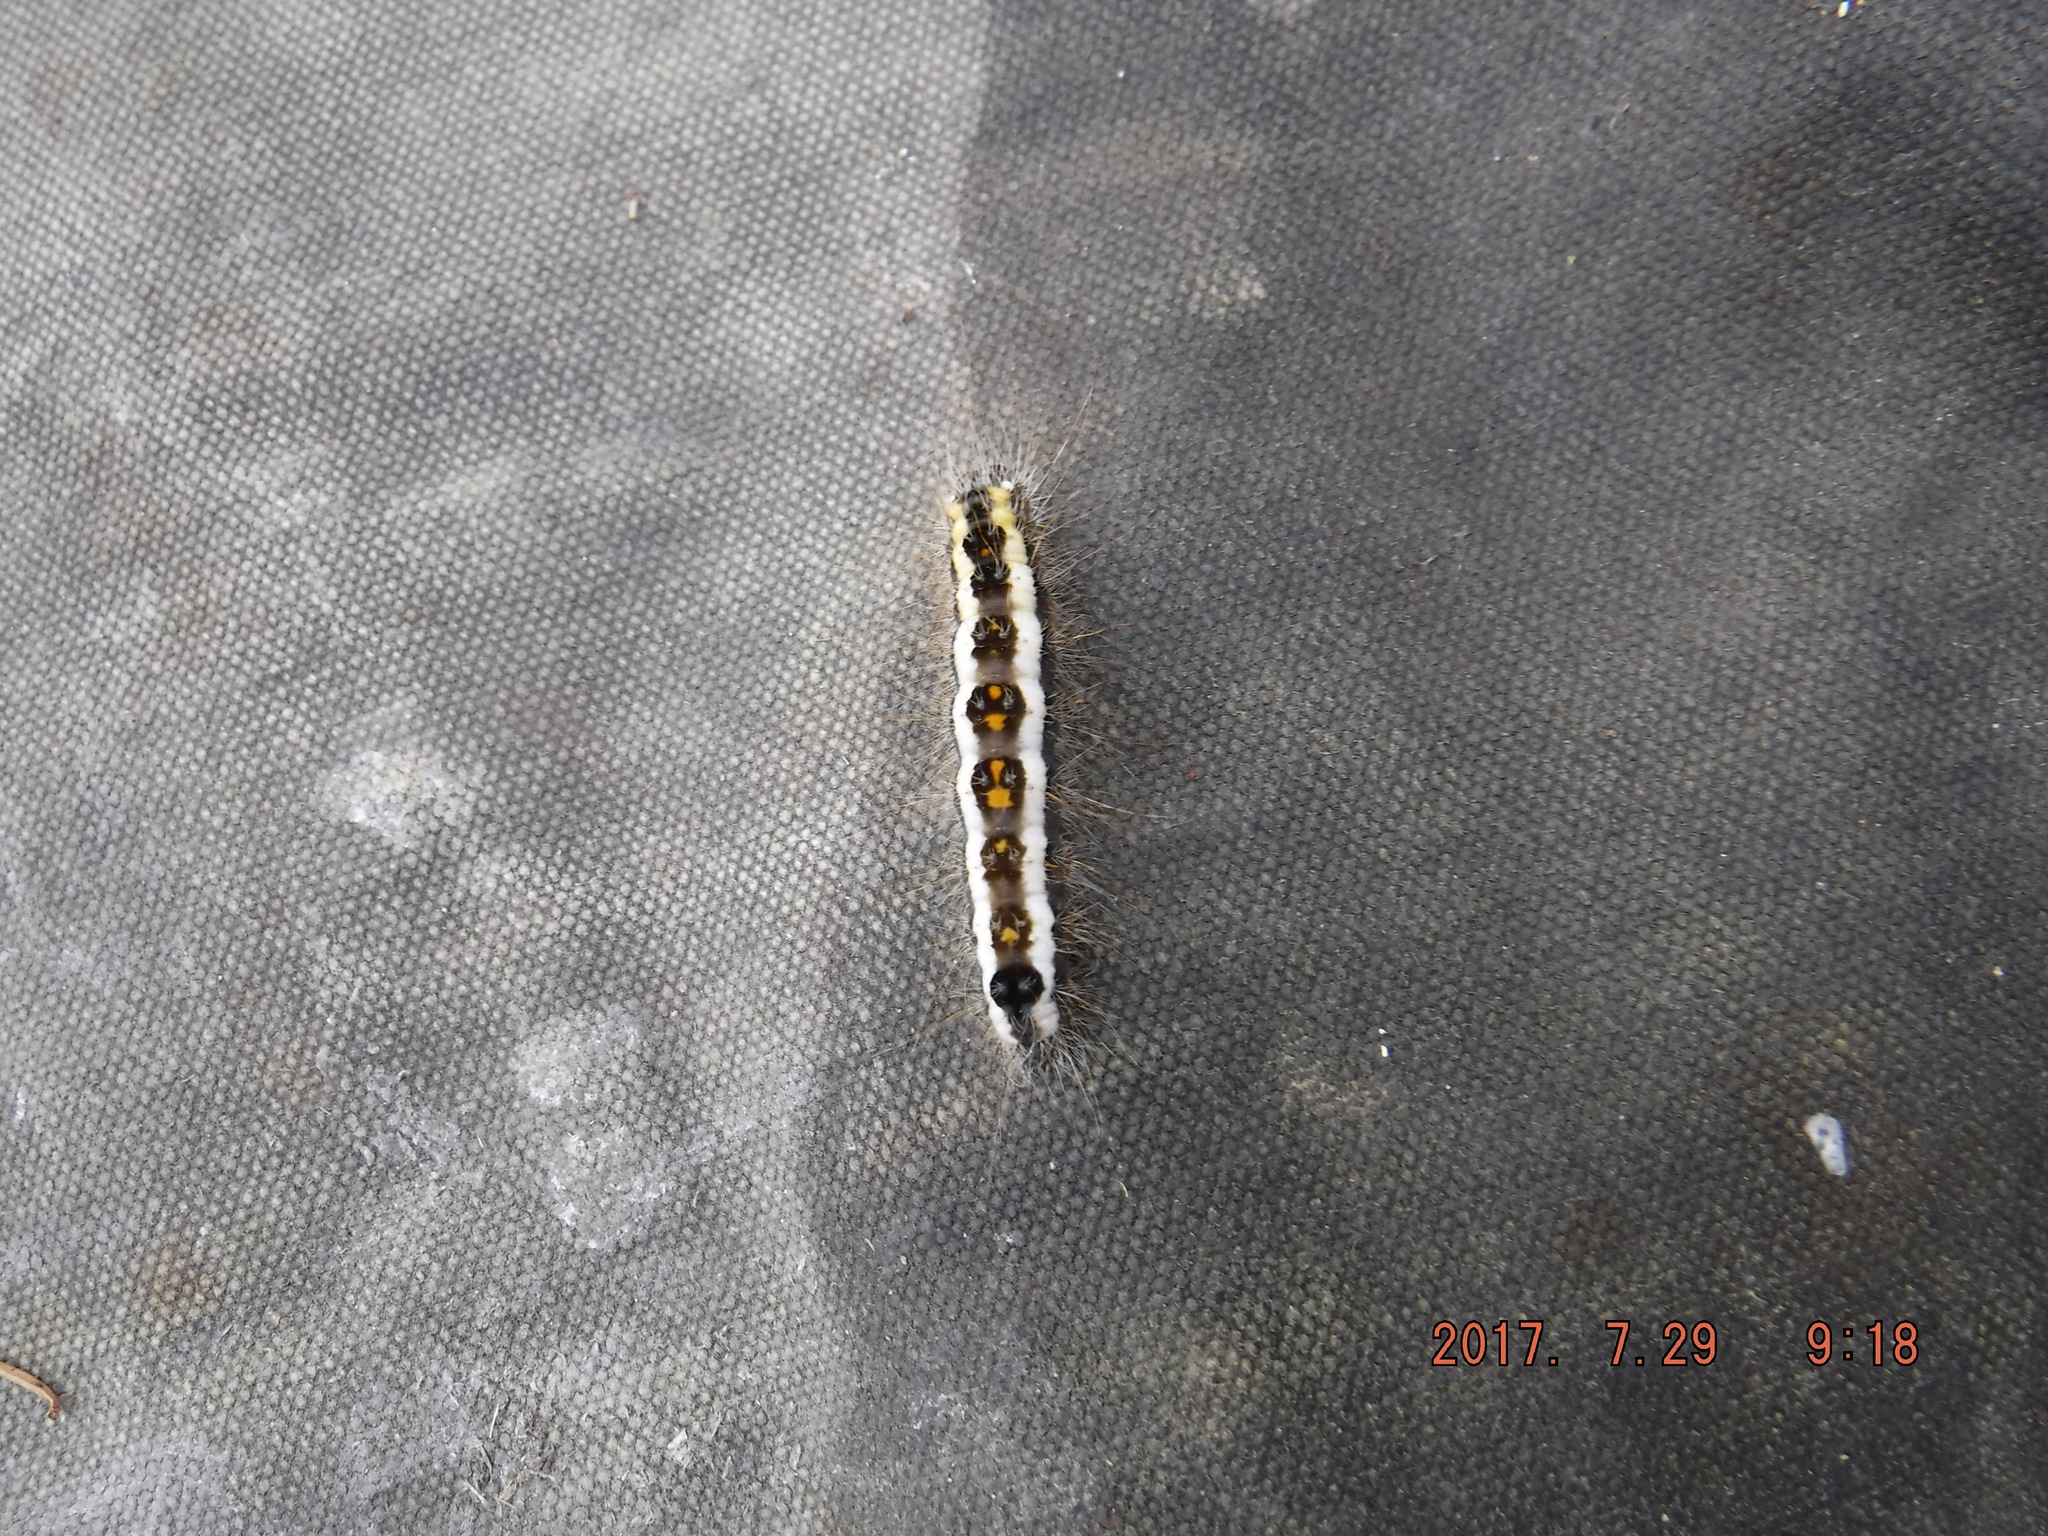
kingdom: Animalia
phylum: Arthropoda
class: Insecta
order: Lepidoptera
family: Noctuidae
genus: Acronicta
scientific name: Acronicta interrupta
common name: Interrupted dagger
